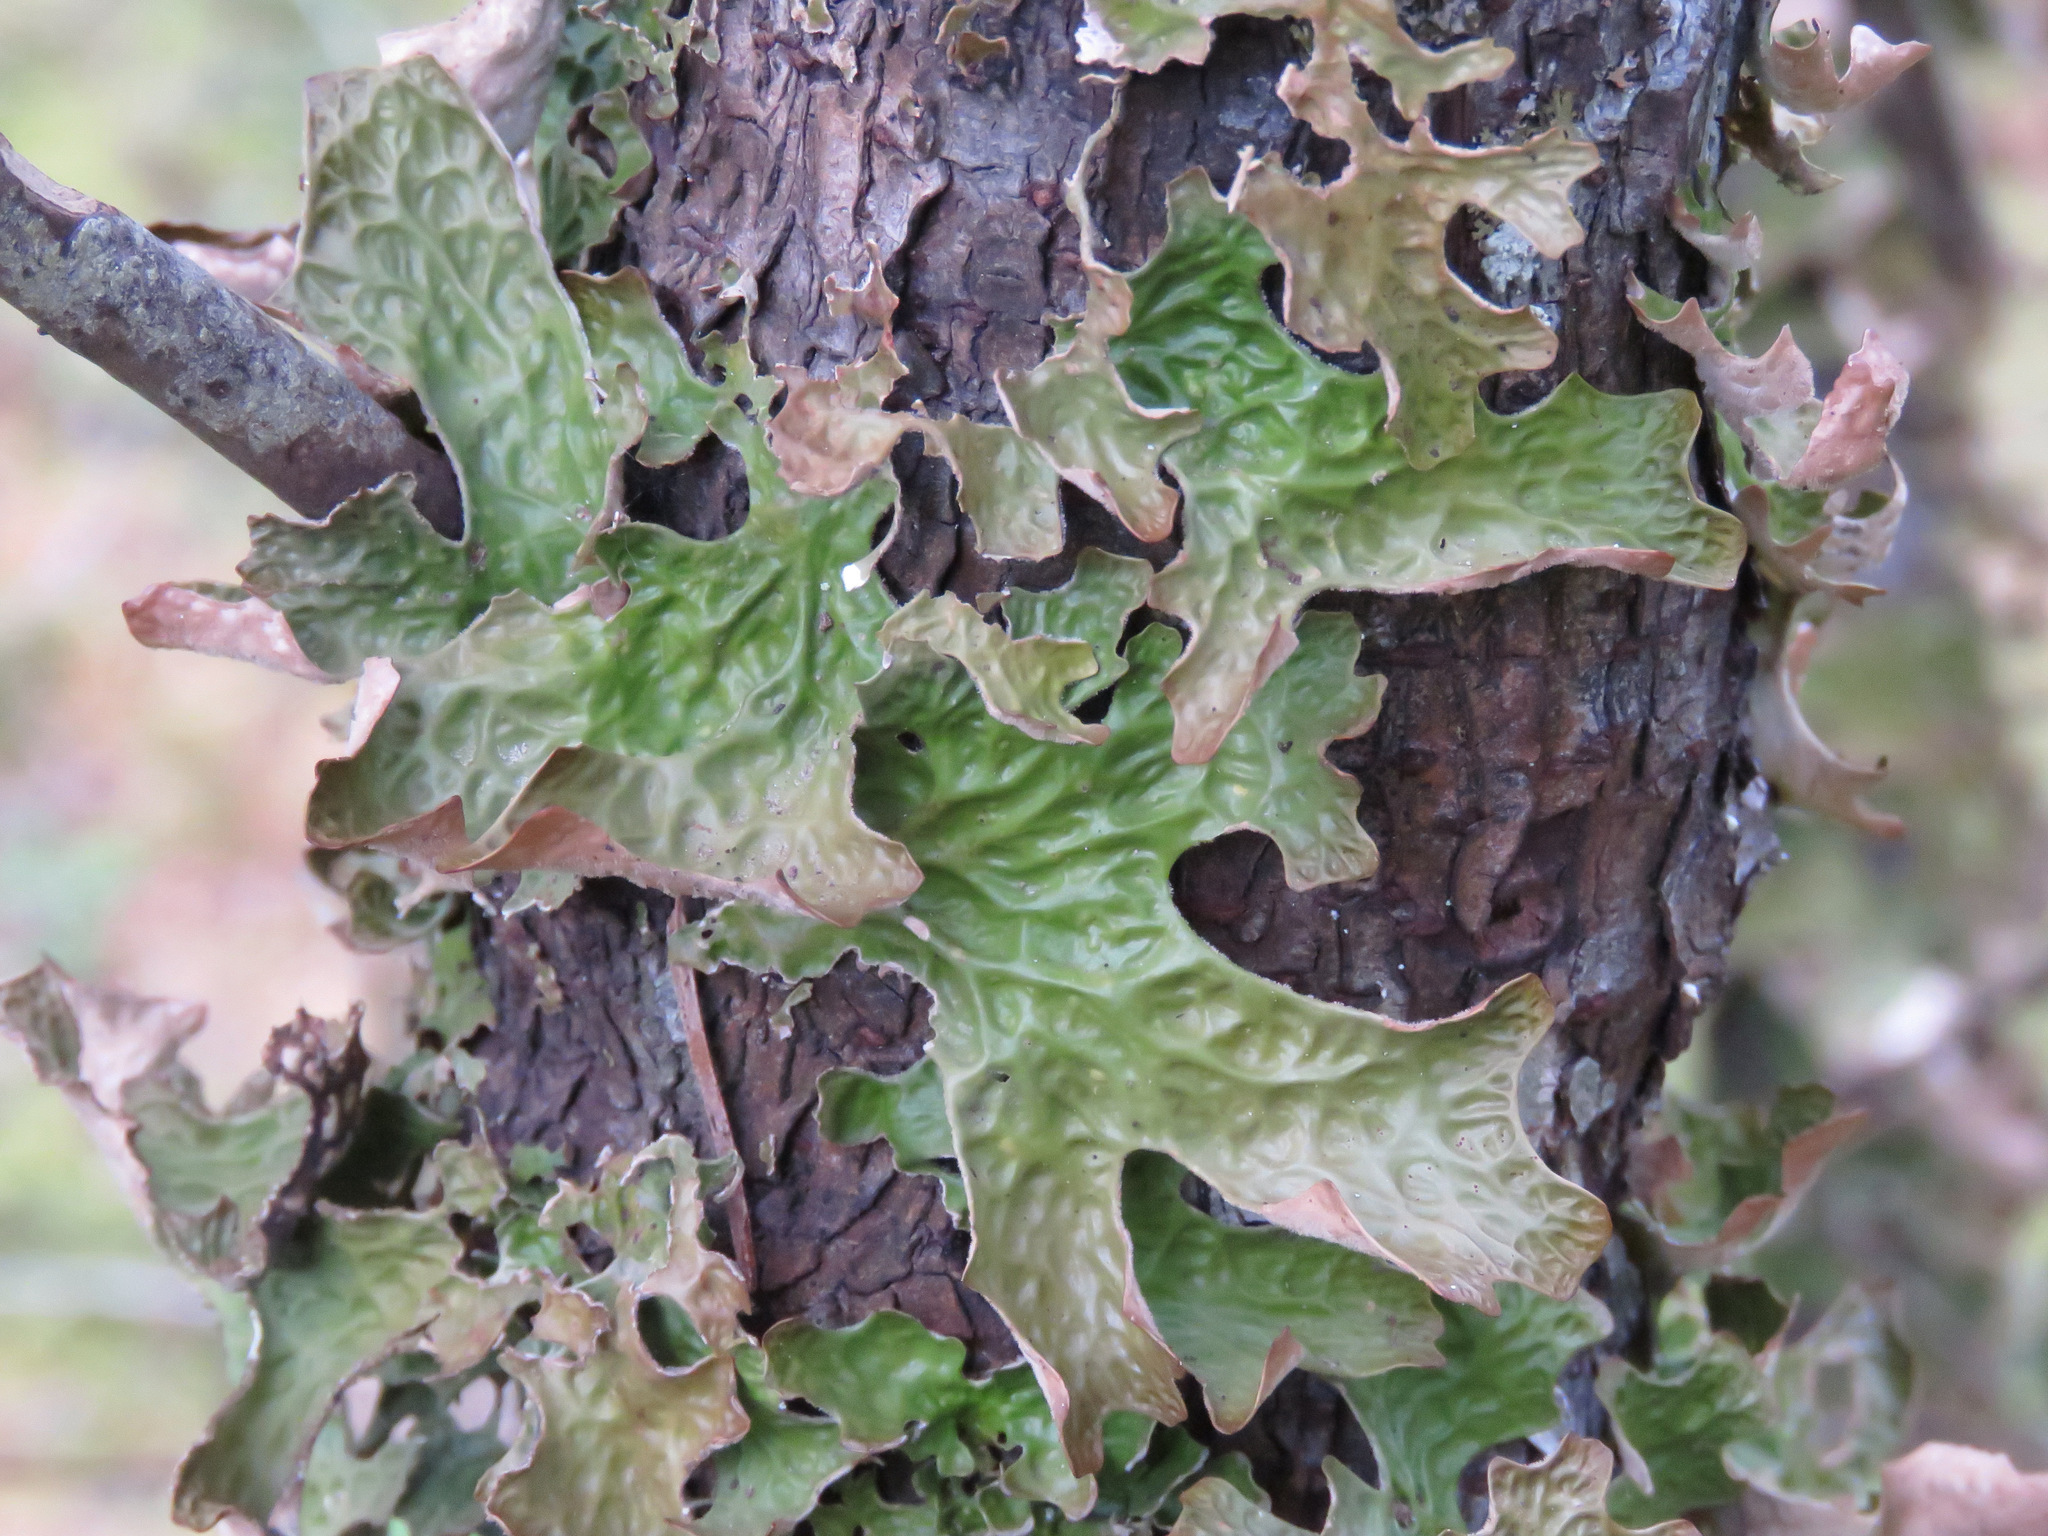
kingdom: Fungi
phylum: Ascomycota
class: Lecanoromycetes
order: Peltigerales
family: Lobariaceae
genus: Lobaria
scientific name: Lobaria pulmonaria
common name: Lungwort
